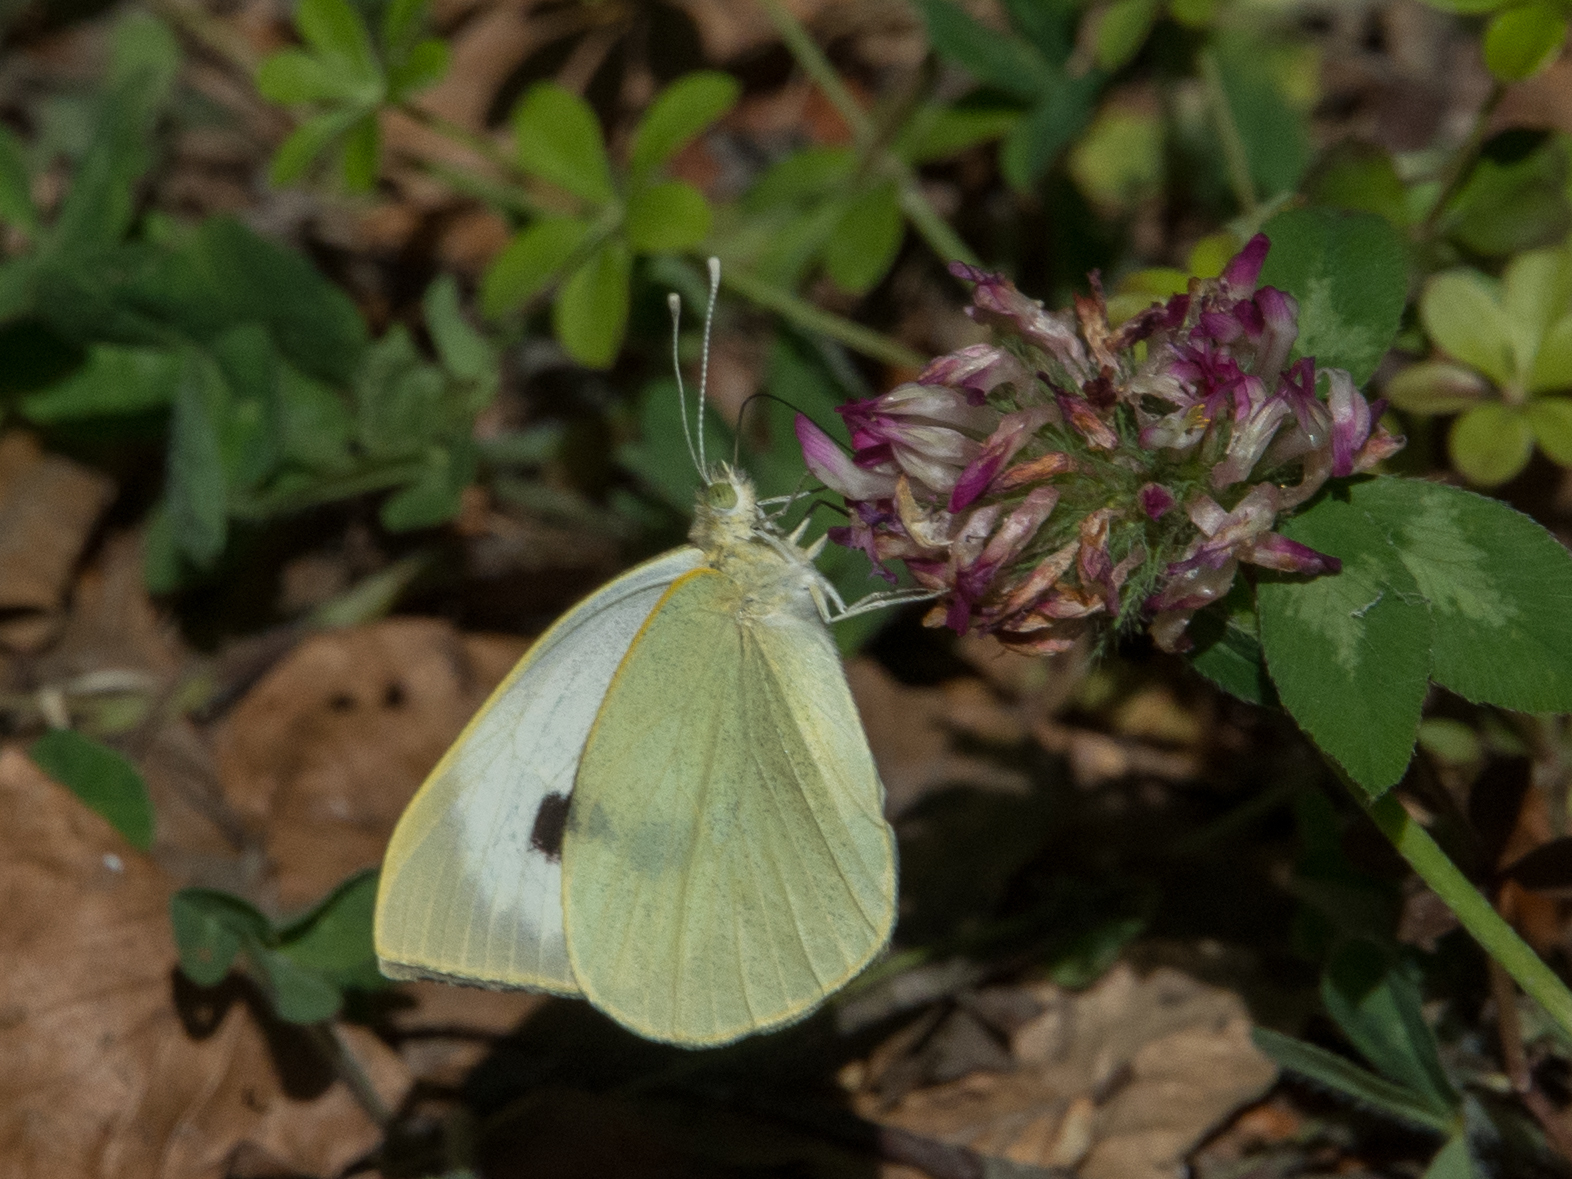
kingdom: Animalia
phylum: Arthropoda
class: Insecta
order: Lepidoptera
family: Pieridae
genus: Pieris
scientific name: Pieris brassicae
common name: Large white
